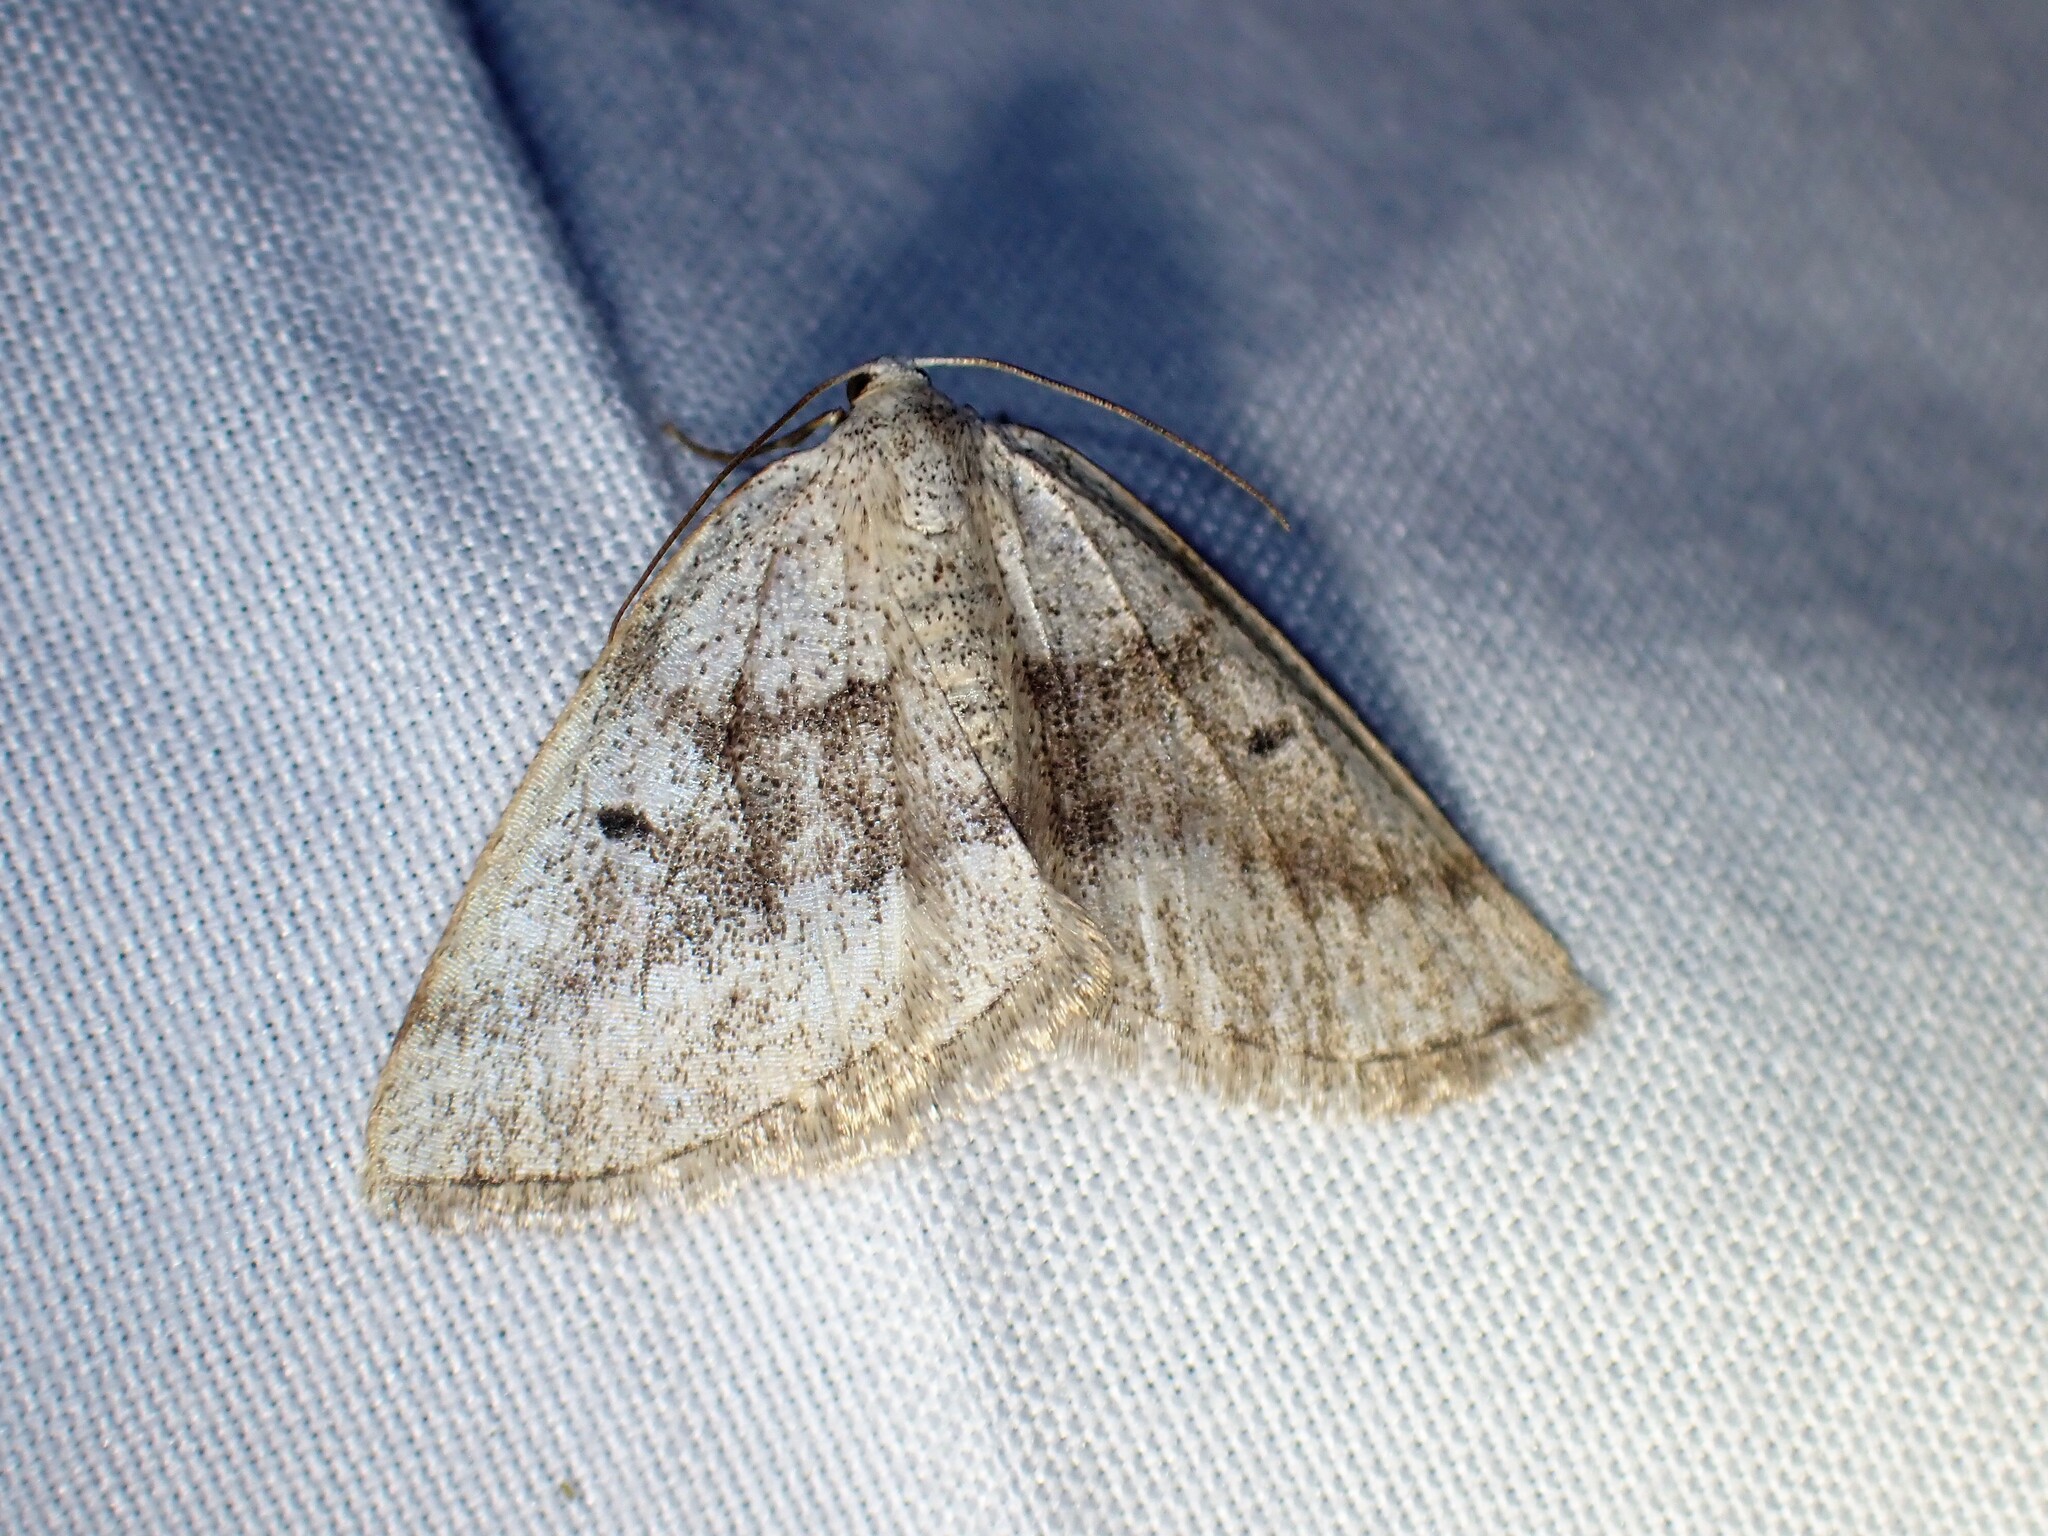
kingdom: Animalia
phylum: Arthropoda
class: Insecta
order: Lepidoptera
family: Geometridae
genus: Lomographa
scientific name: Lomographa glomeraria
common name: Gray spring moth
